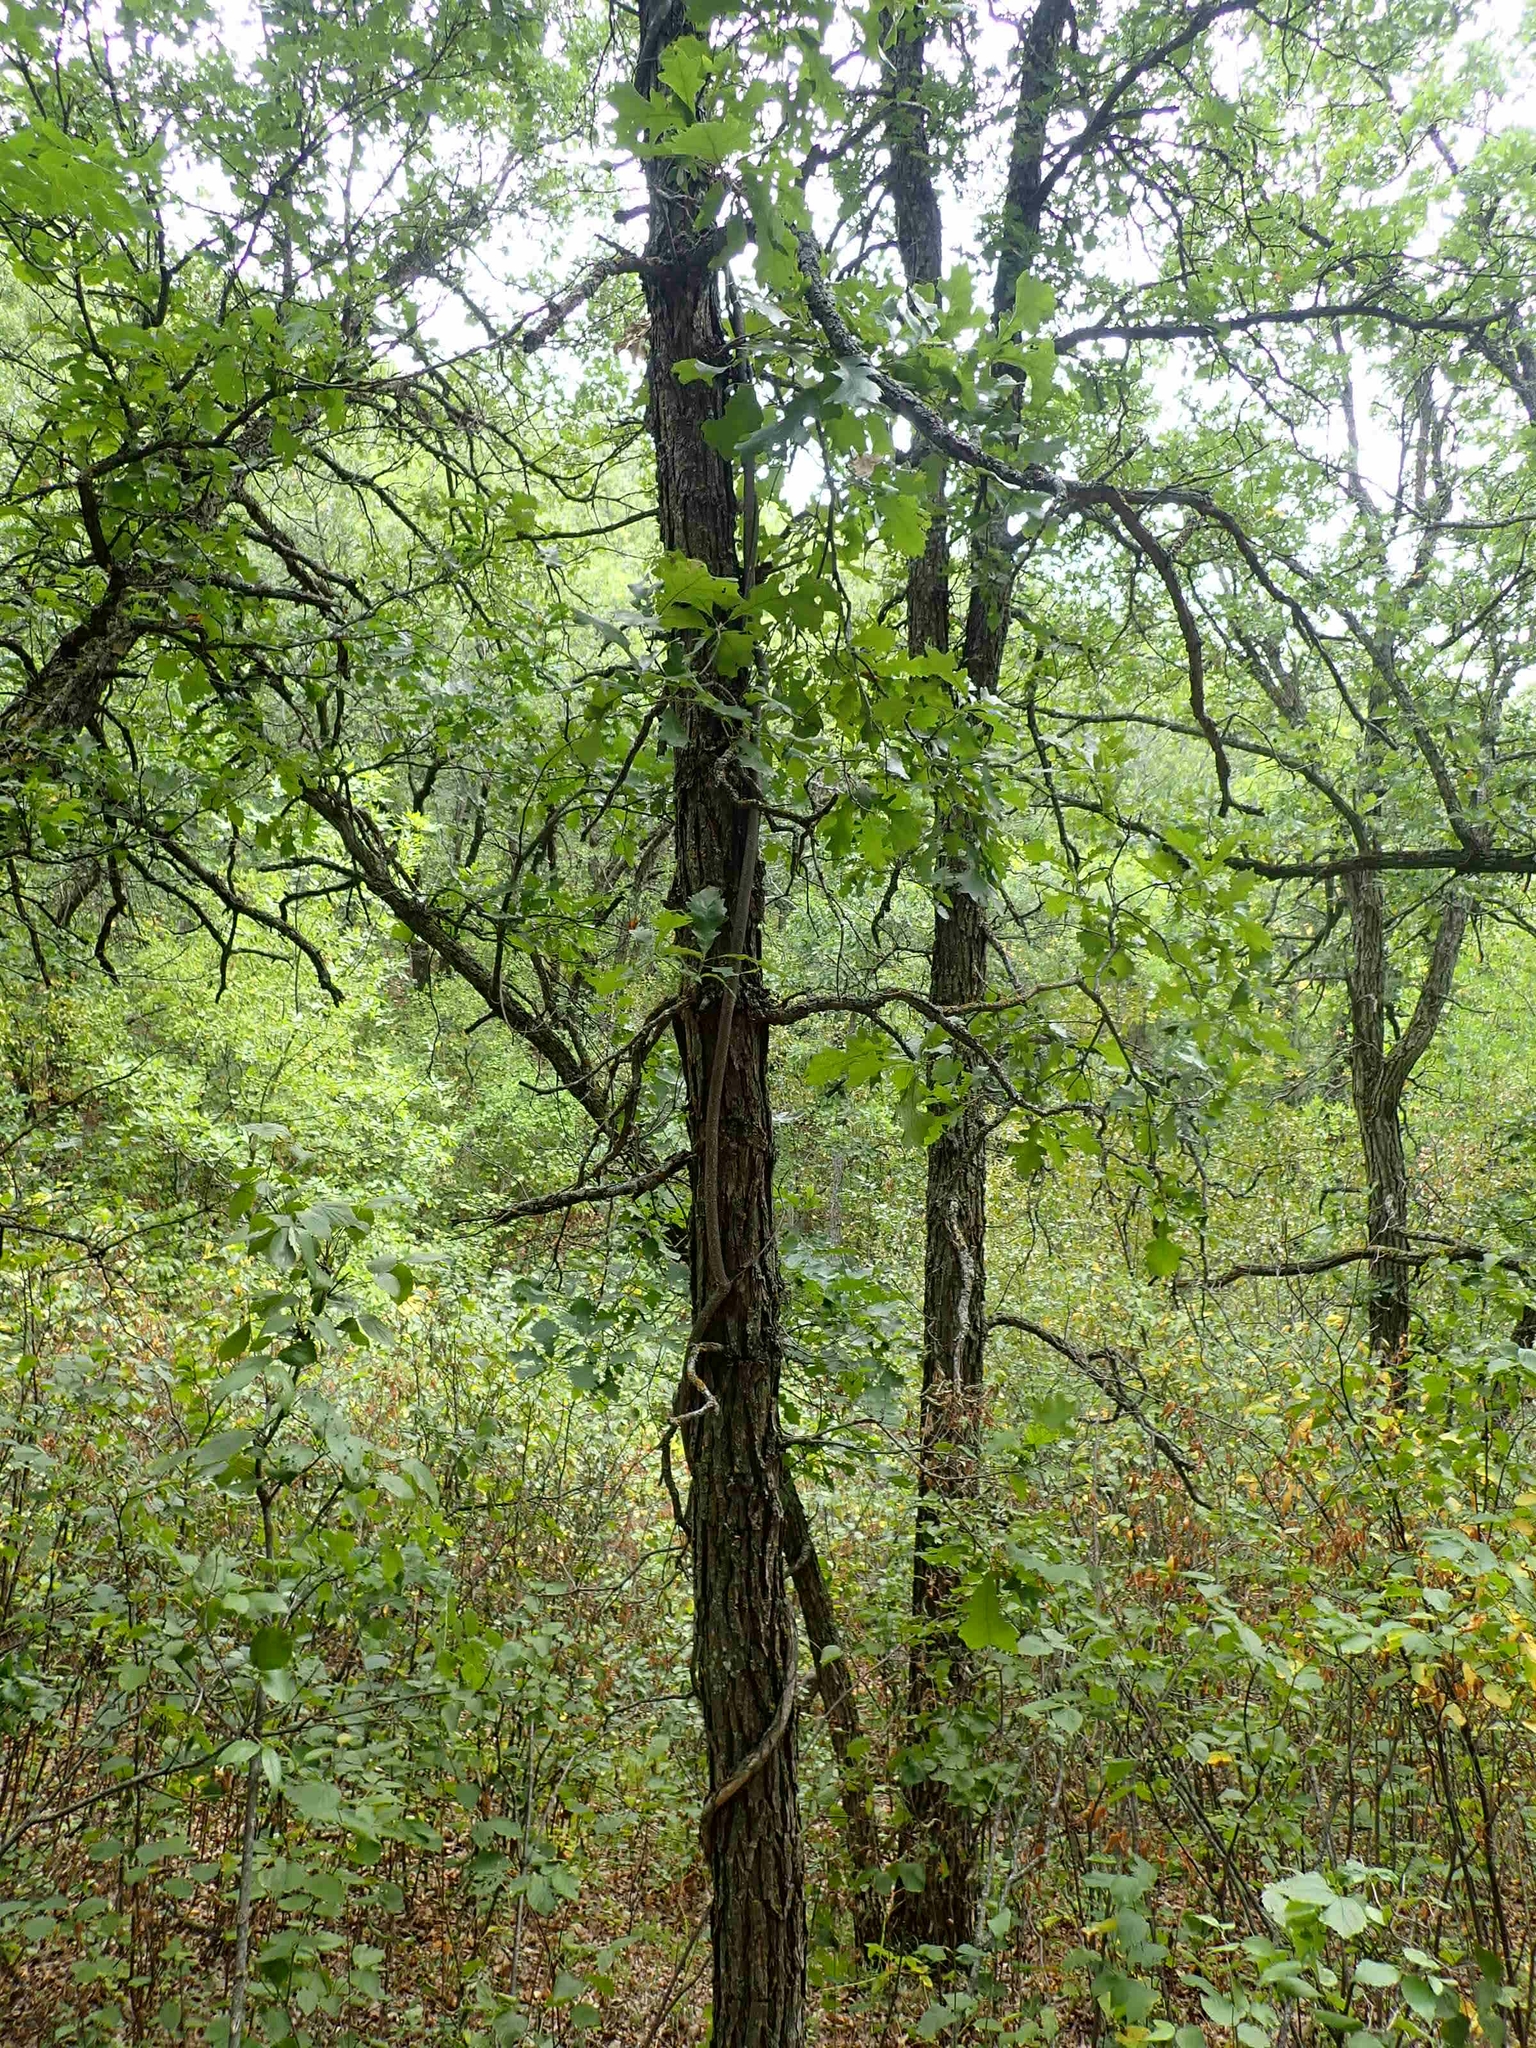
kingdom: Plantae
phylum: Tracheophyta
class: Magnoliopsida
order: Fagales
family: Fagaceae
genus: Quercus
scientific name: Quercus macrocarpa
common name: Bur oak
